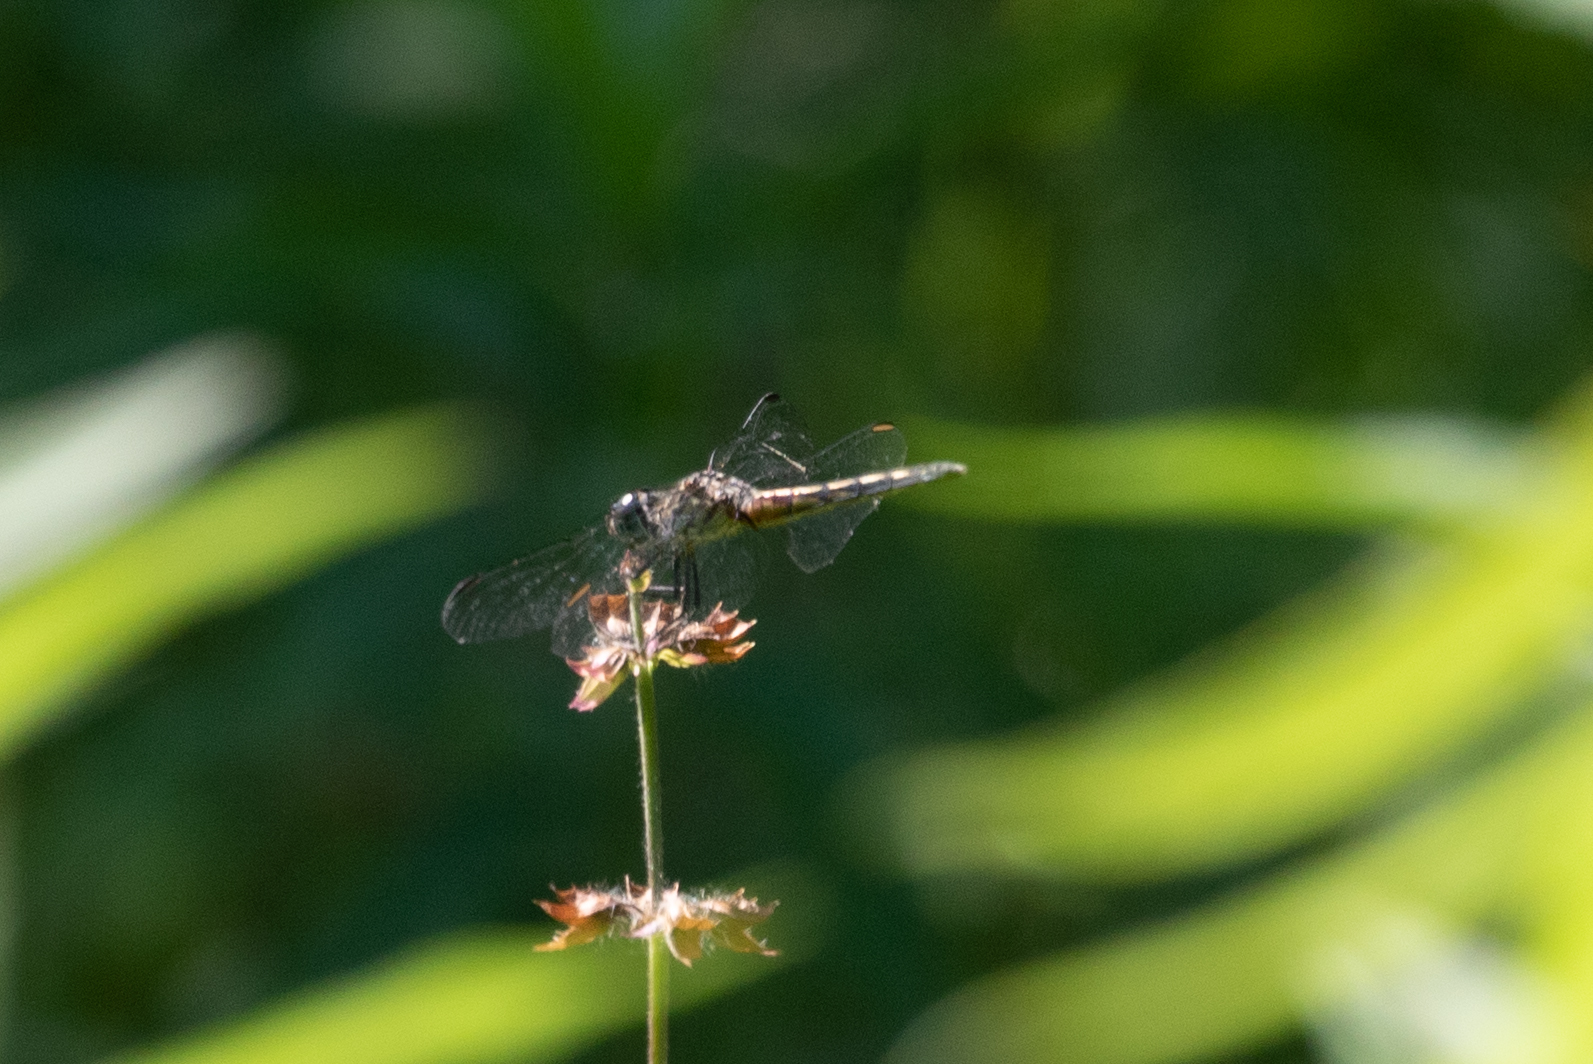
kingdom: Animalia
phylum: Arthropoda
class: Insecta
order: Odonata
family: Libellulidae
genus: Pachydiplax
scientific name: Pachydiplax longipennis
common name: Blue dasher
